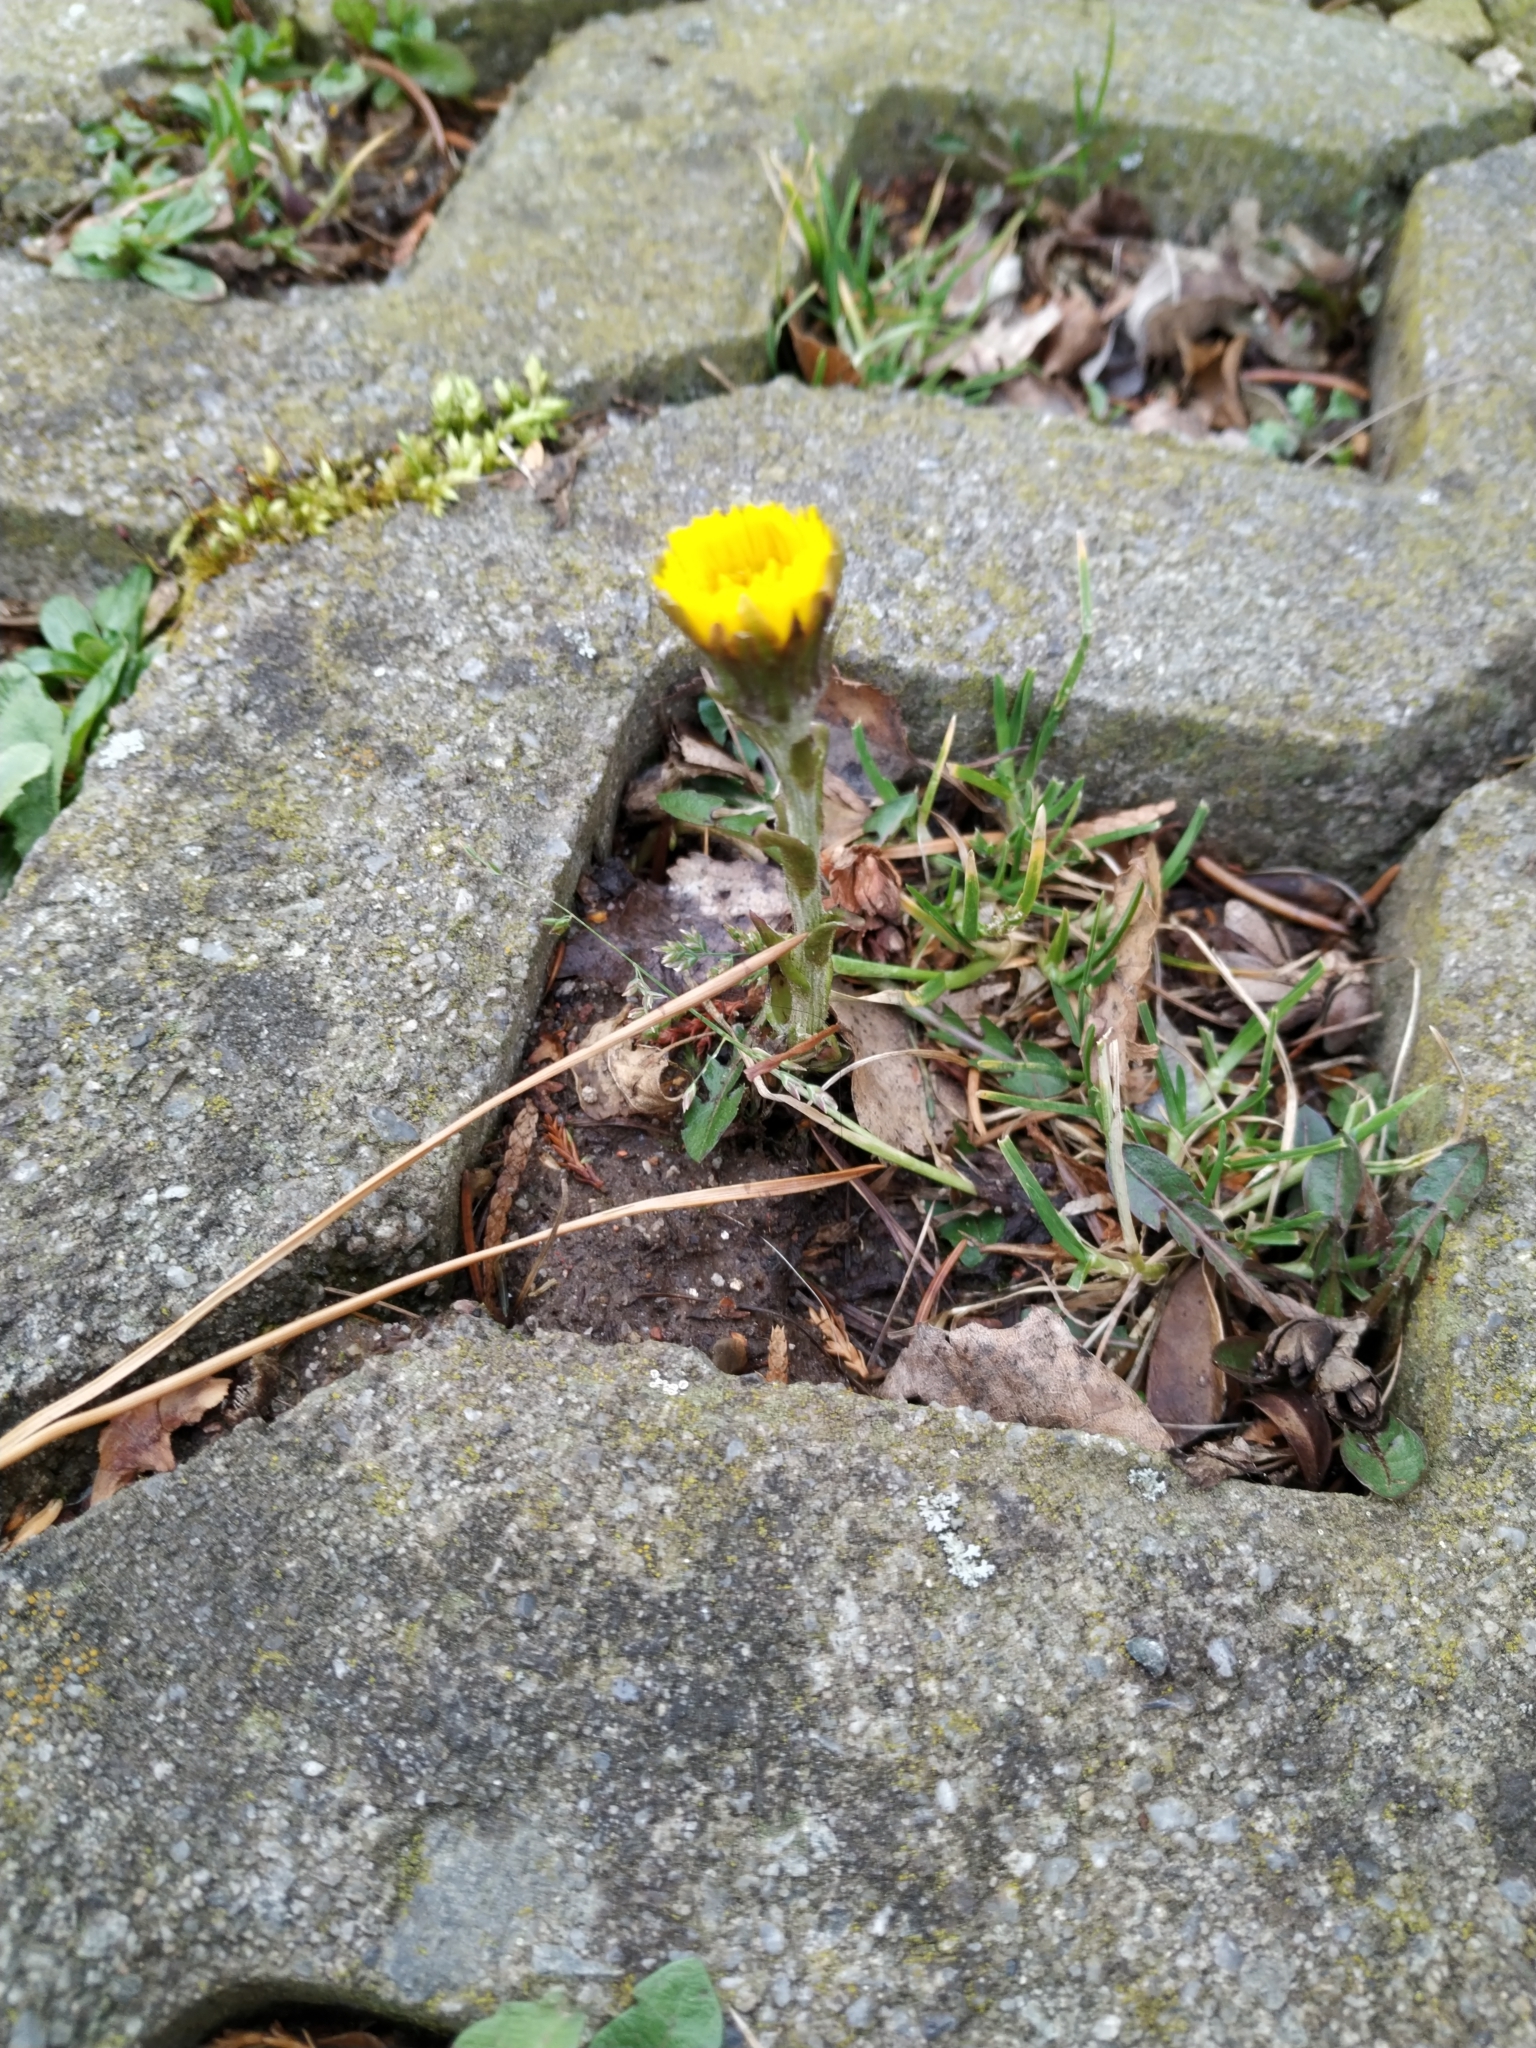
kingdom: Plantae
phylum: Tracheophyta
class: Magnoliopsida
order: Asterales
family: Asteraceae
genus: Tussilago
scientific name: Tussilago farfara
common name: Coltsfoot
